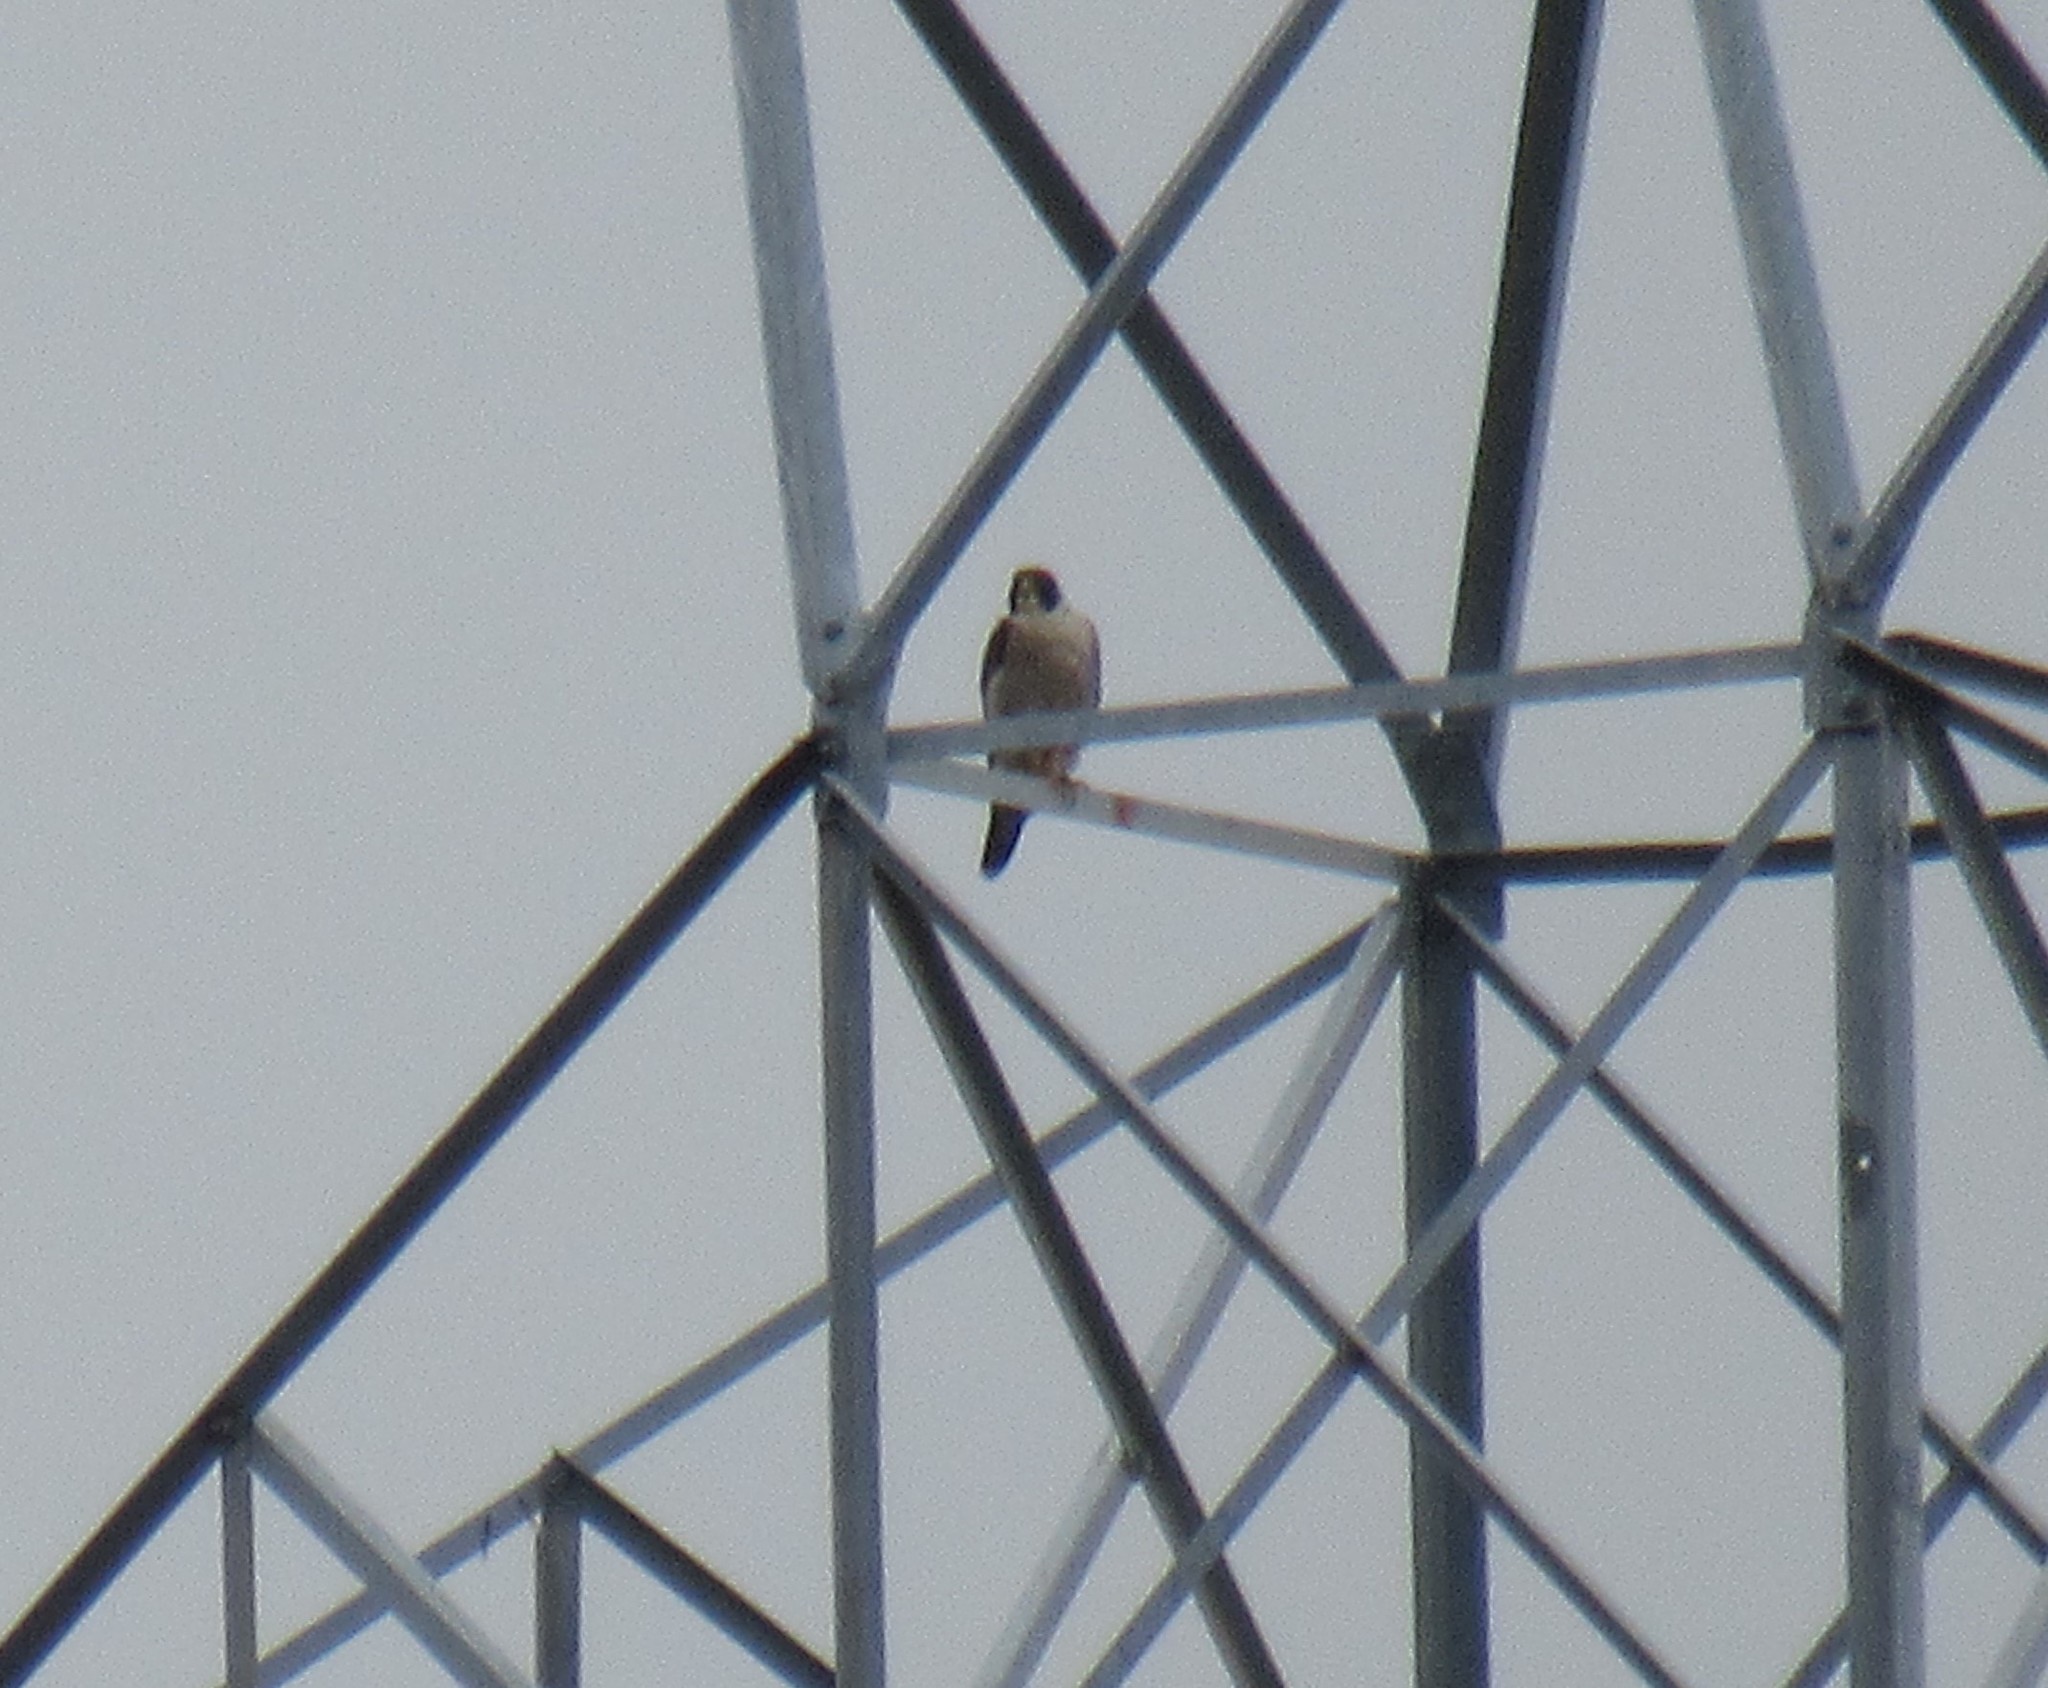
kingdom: Animalia
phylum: Chordata
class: Aves
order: Falconiformes
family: Falconidae
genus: Falco
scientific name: Falco peregrinus
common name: Peregrine falcon
